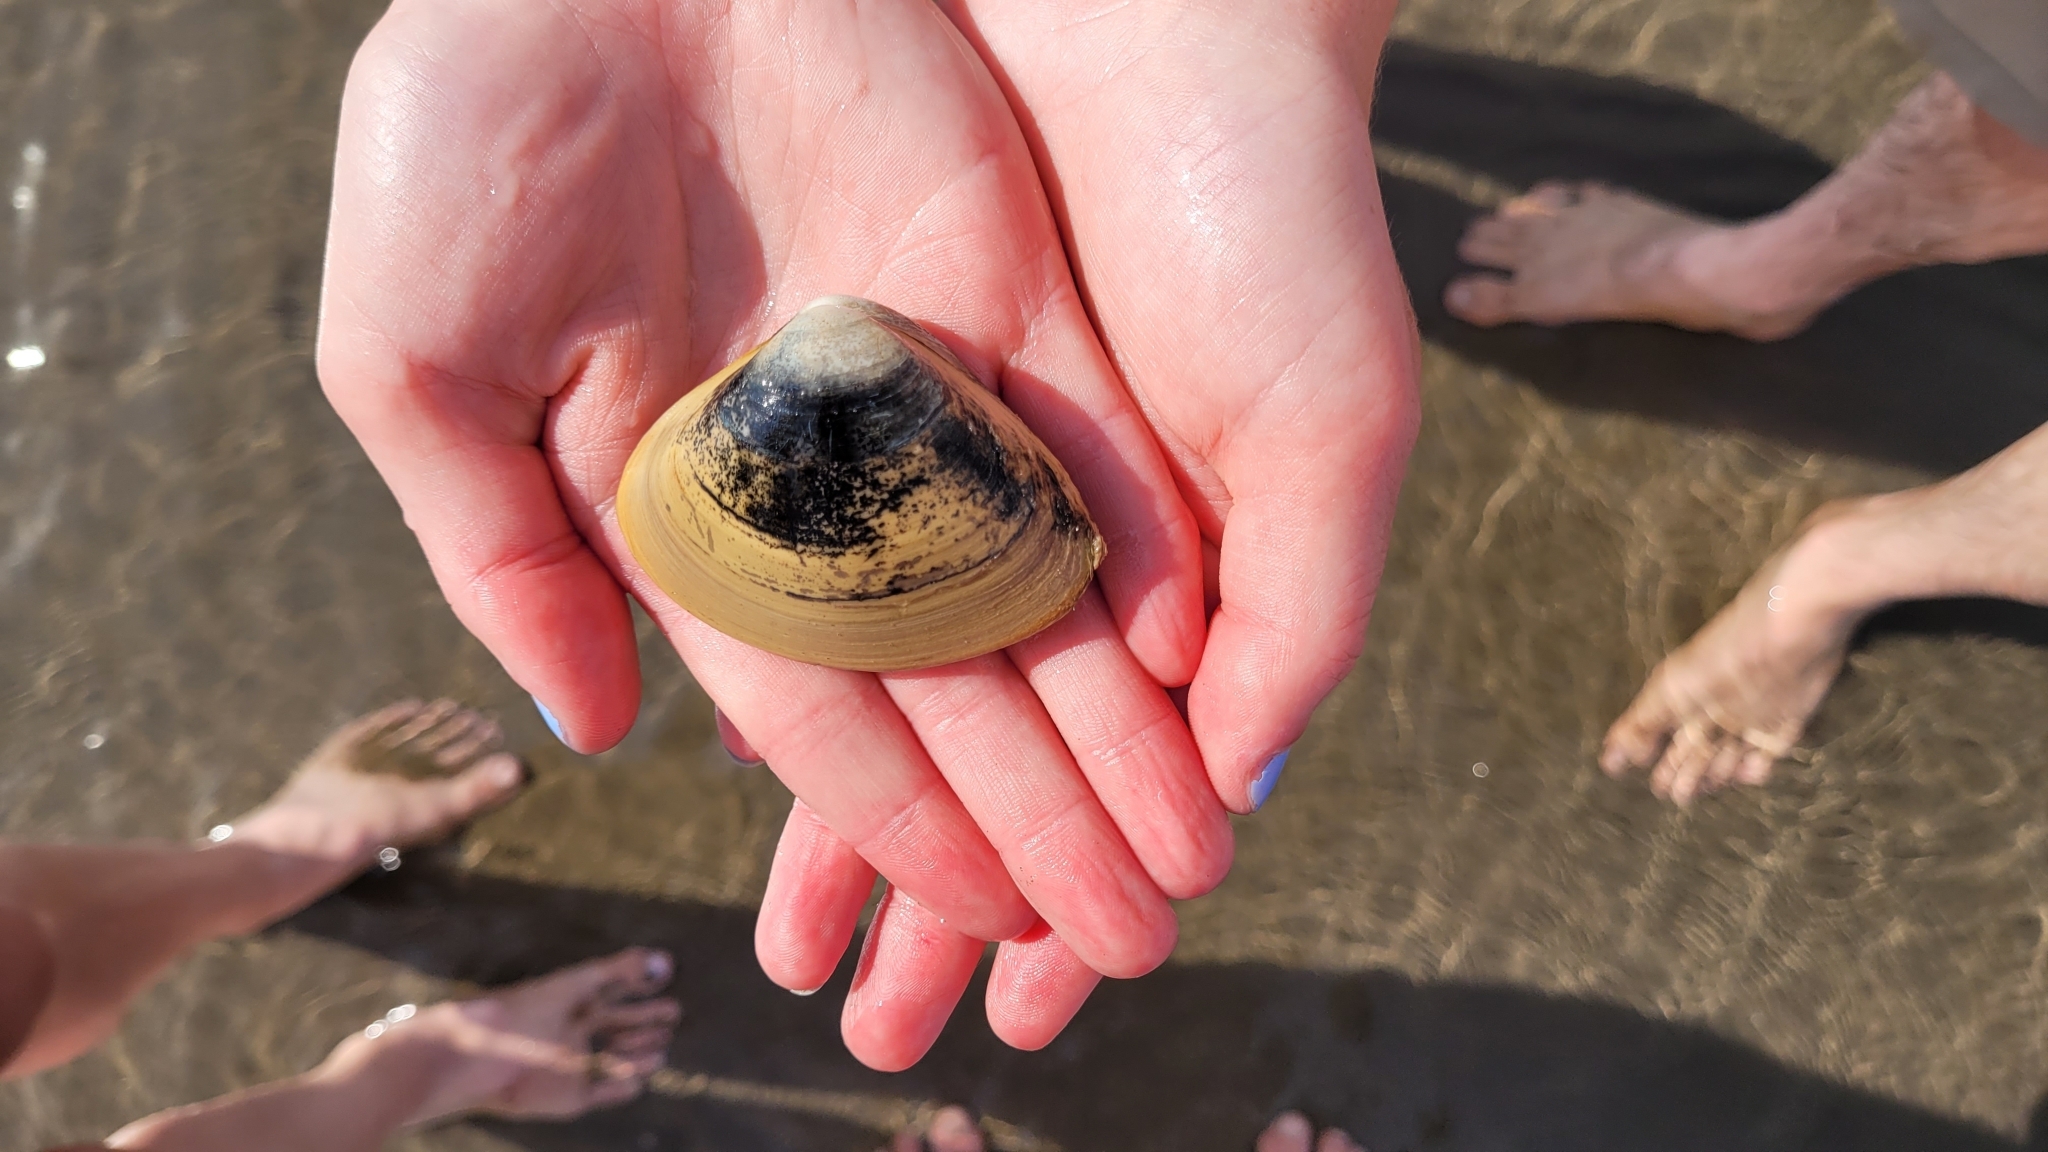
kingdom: Animalia
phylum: Mollusca
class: Bivalvia
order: Venerida
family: Mactridae
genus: Spisula
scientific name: Spisula solidissima
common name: Atlantic surf clam
